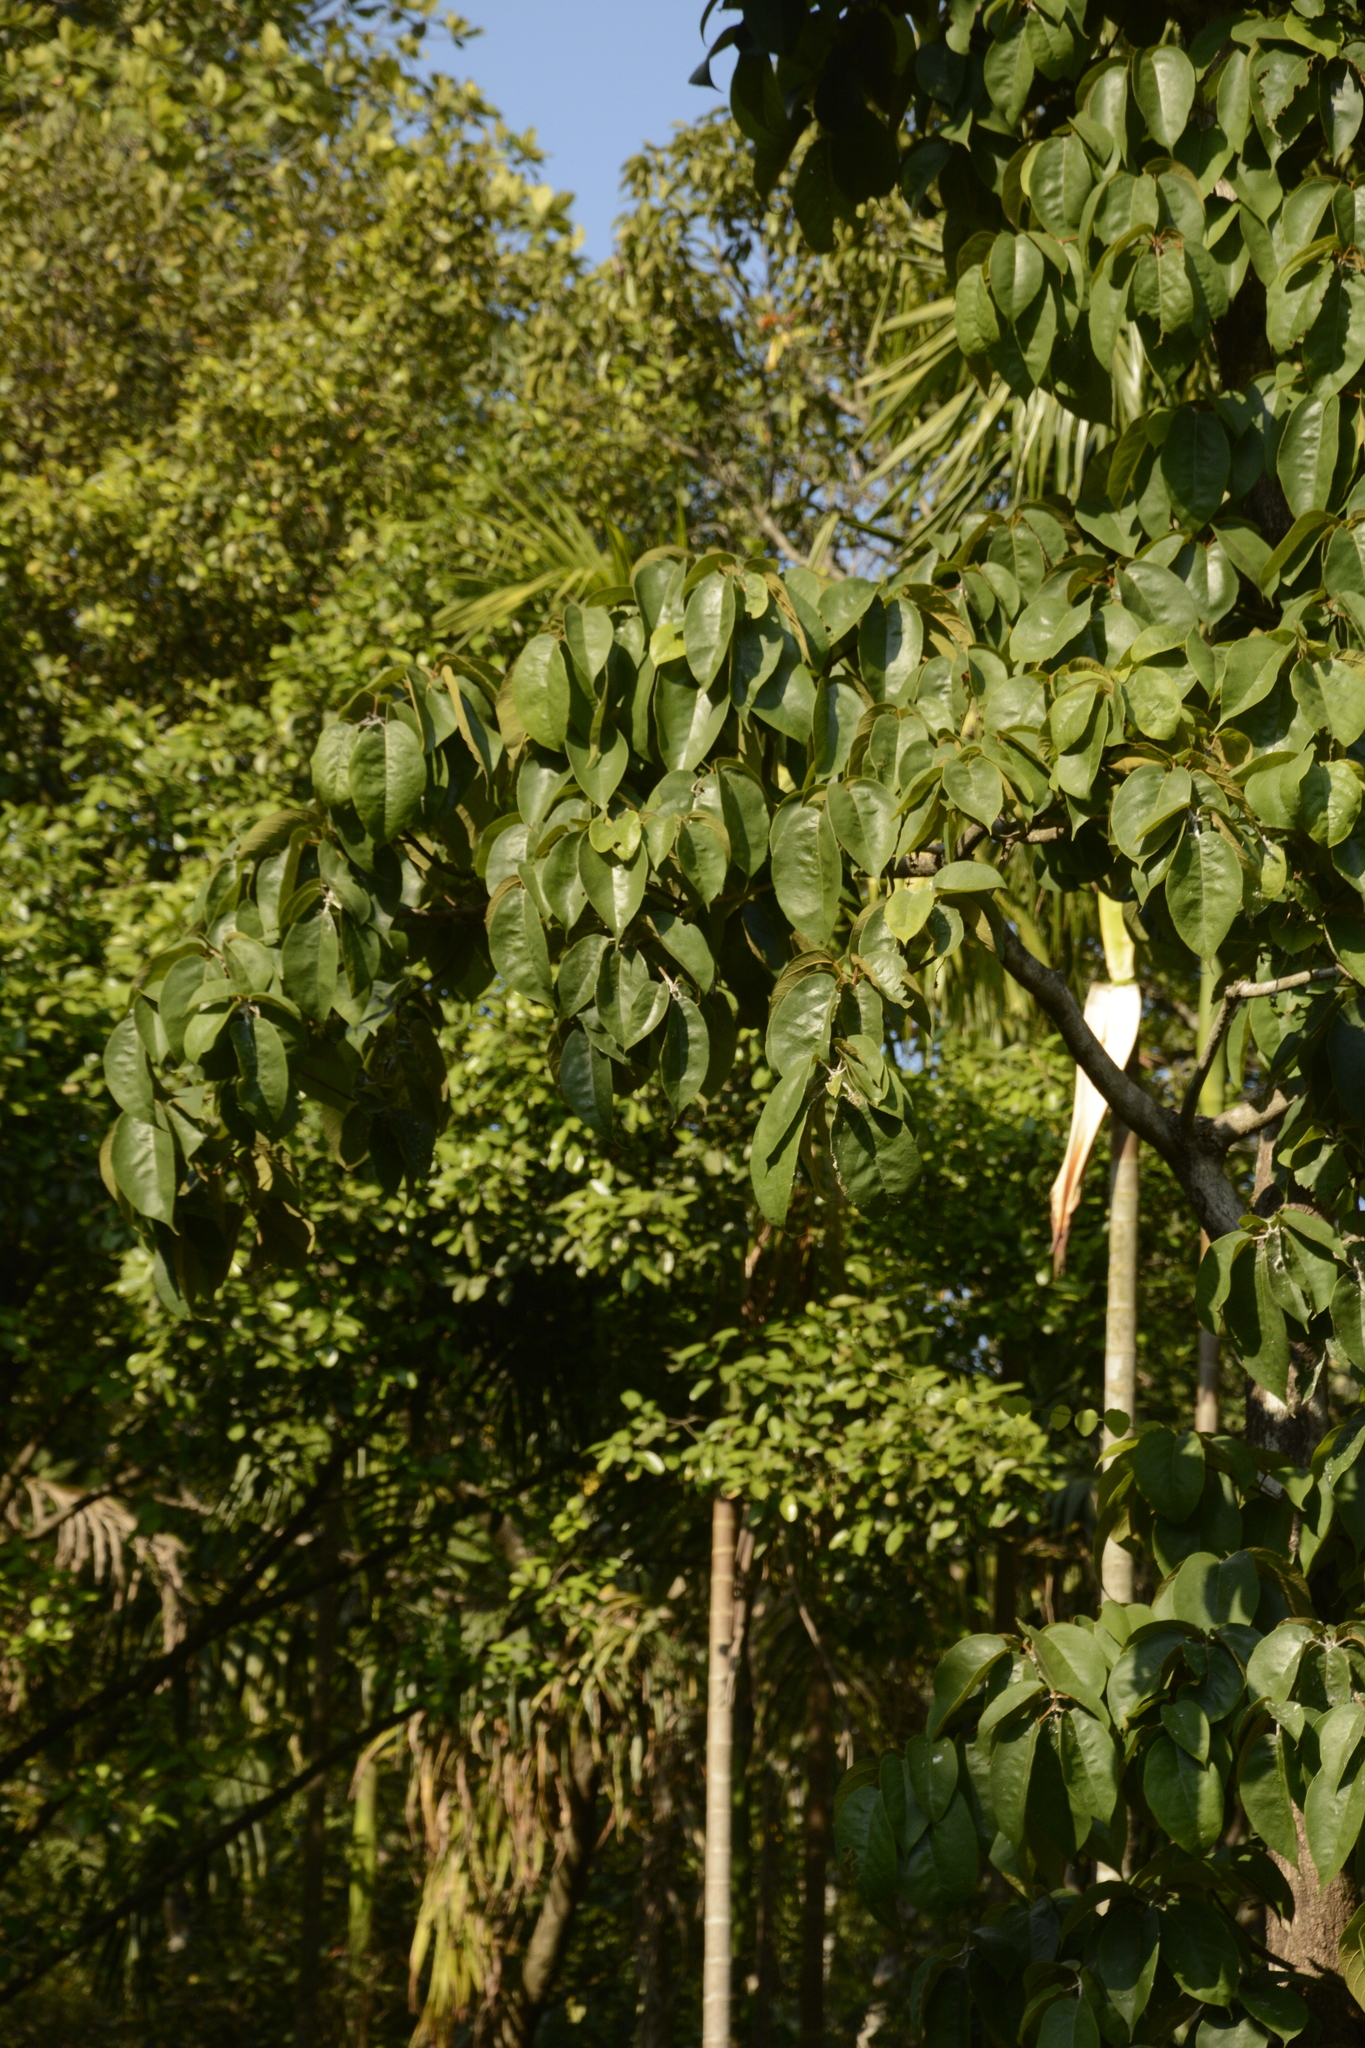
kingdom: Plantae
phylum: Tracheophyta
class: Magnoliopsida
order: Malvales
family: Malvaceae
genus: Sterculia
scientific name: Sterculia guttata
